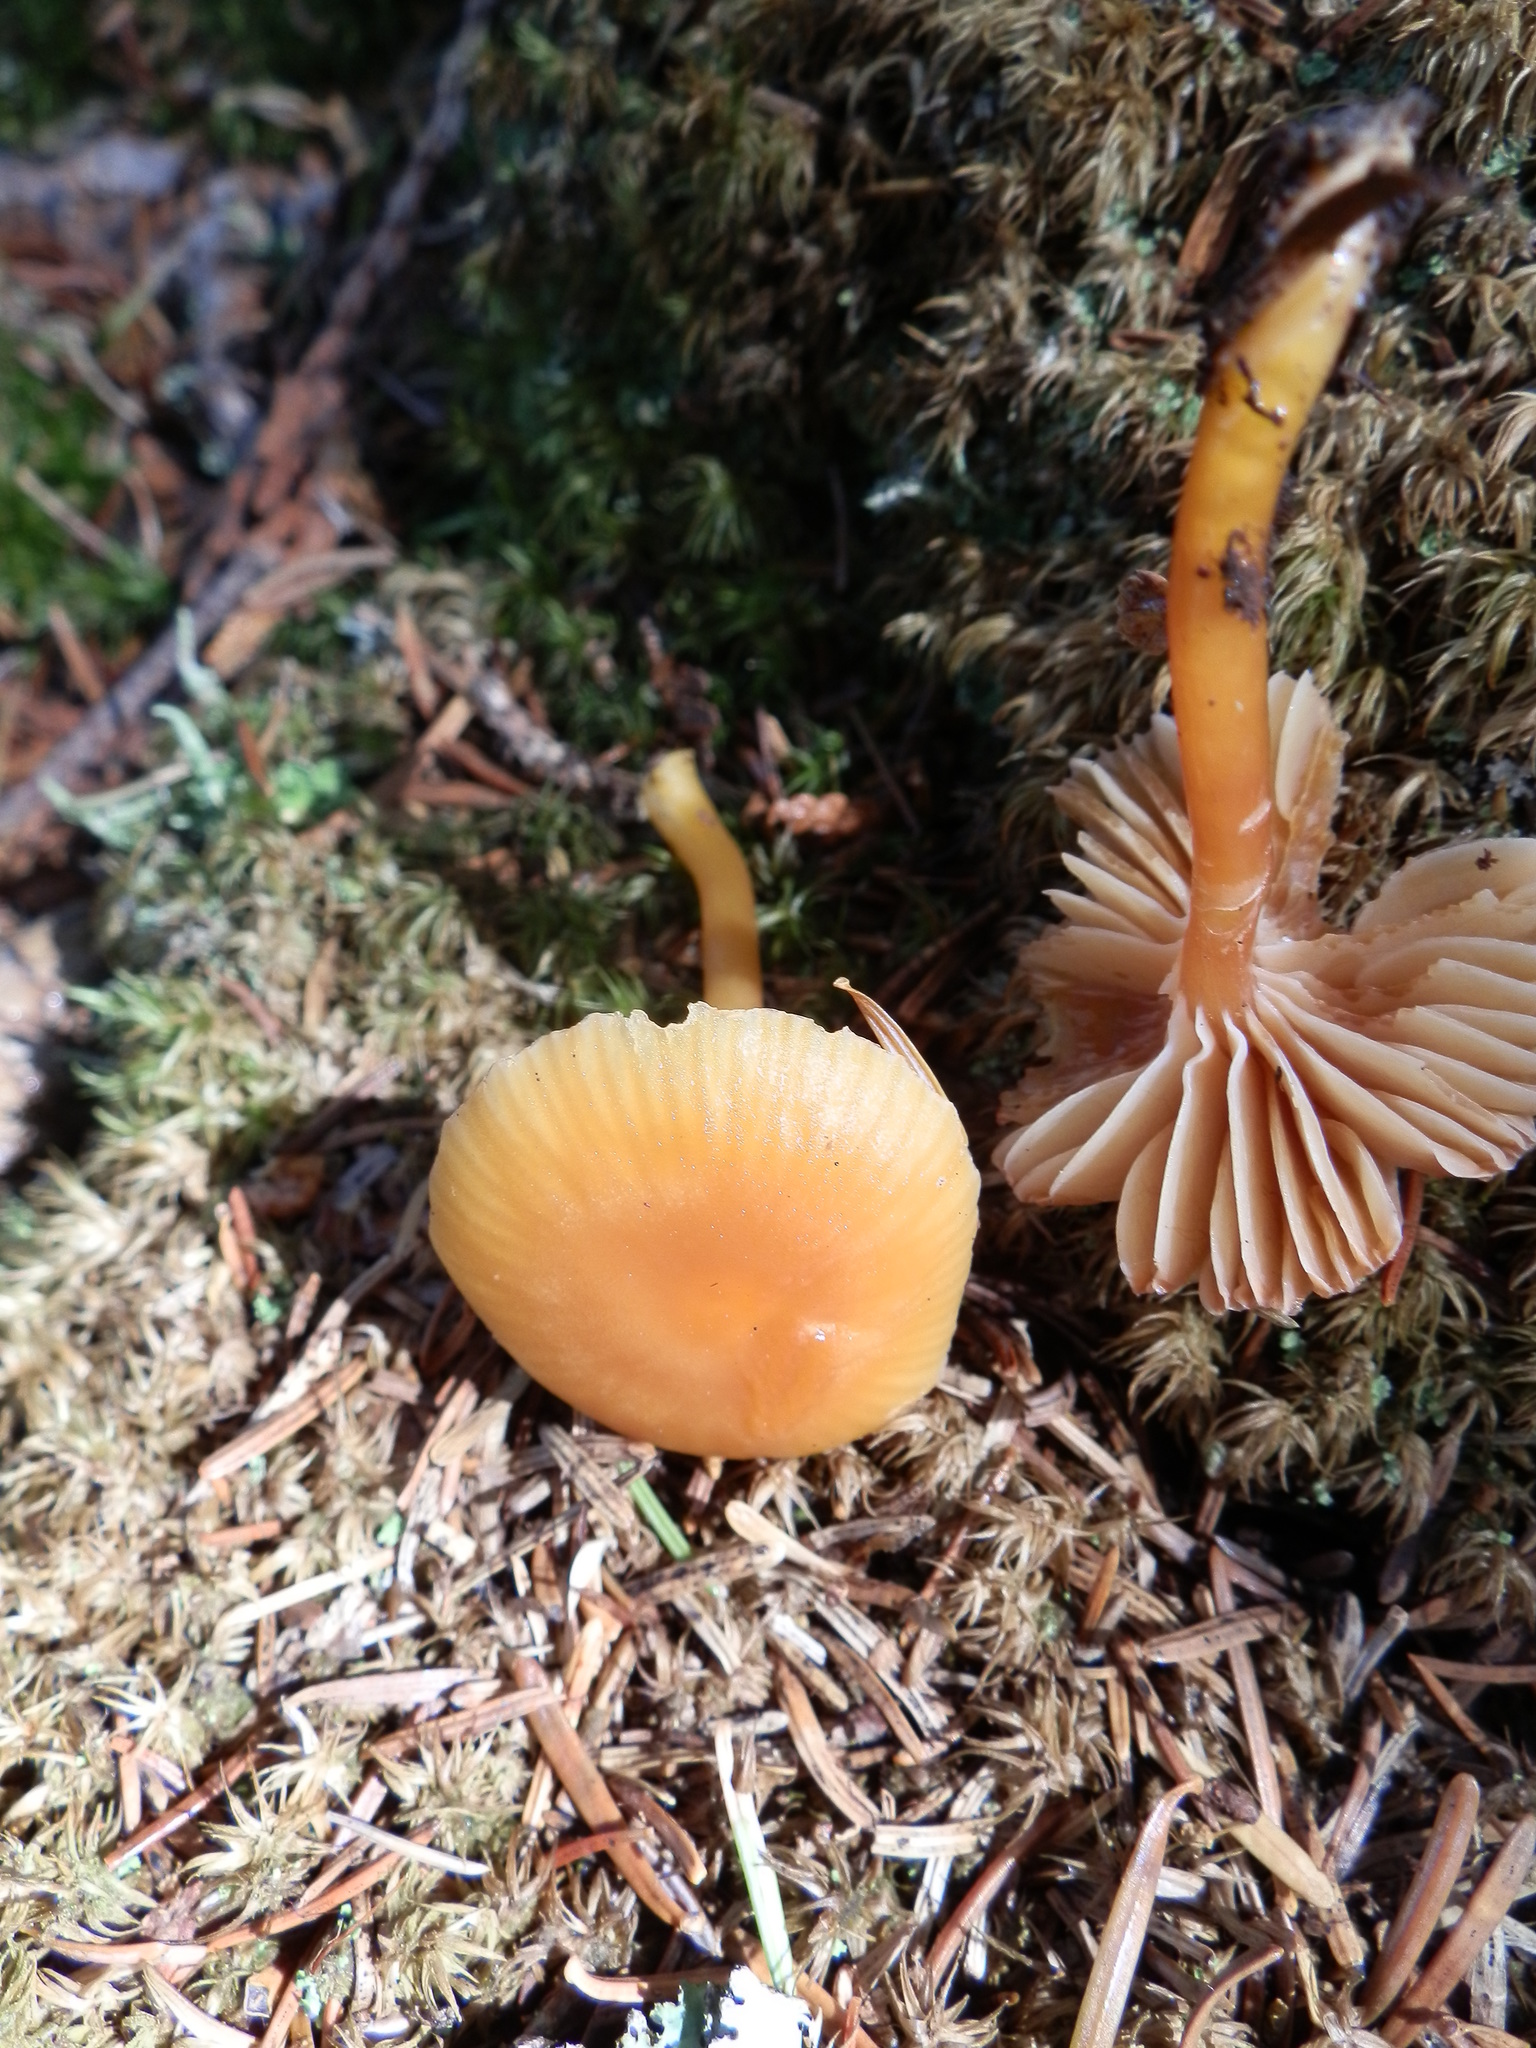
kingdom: Fungi
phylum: Basidiomycota
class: Agaricomycetes
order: Agaricales
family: Hygrophoraceae
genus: Gliophorus
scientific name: Gliophorus laetus
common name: Heath waxcap
